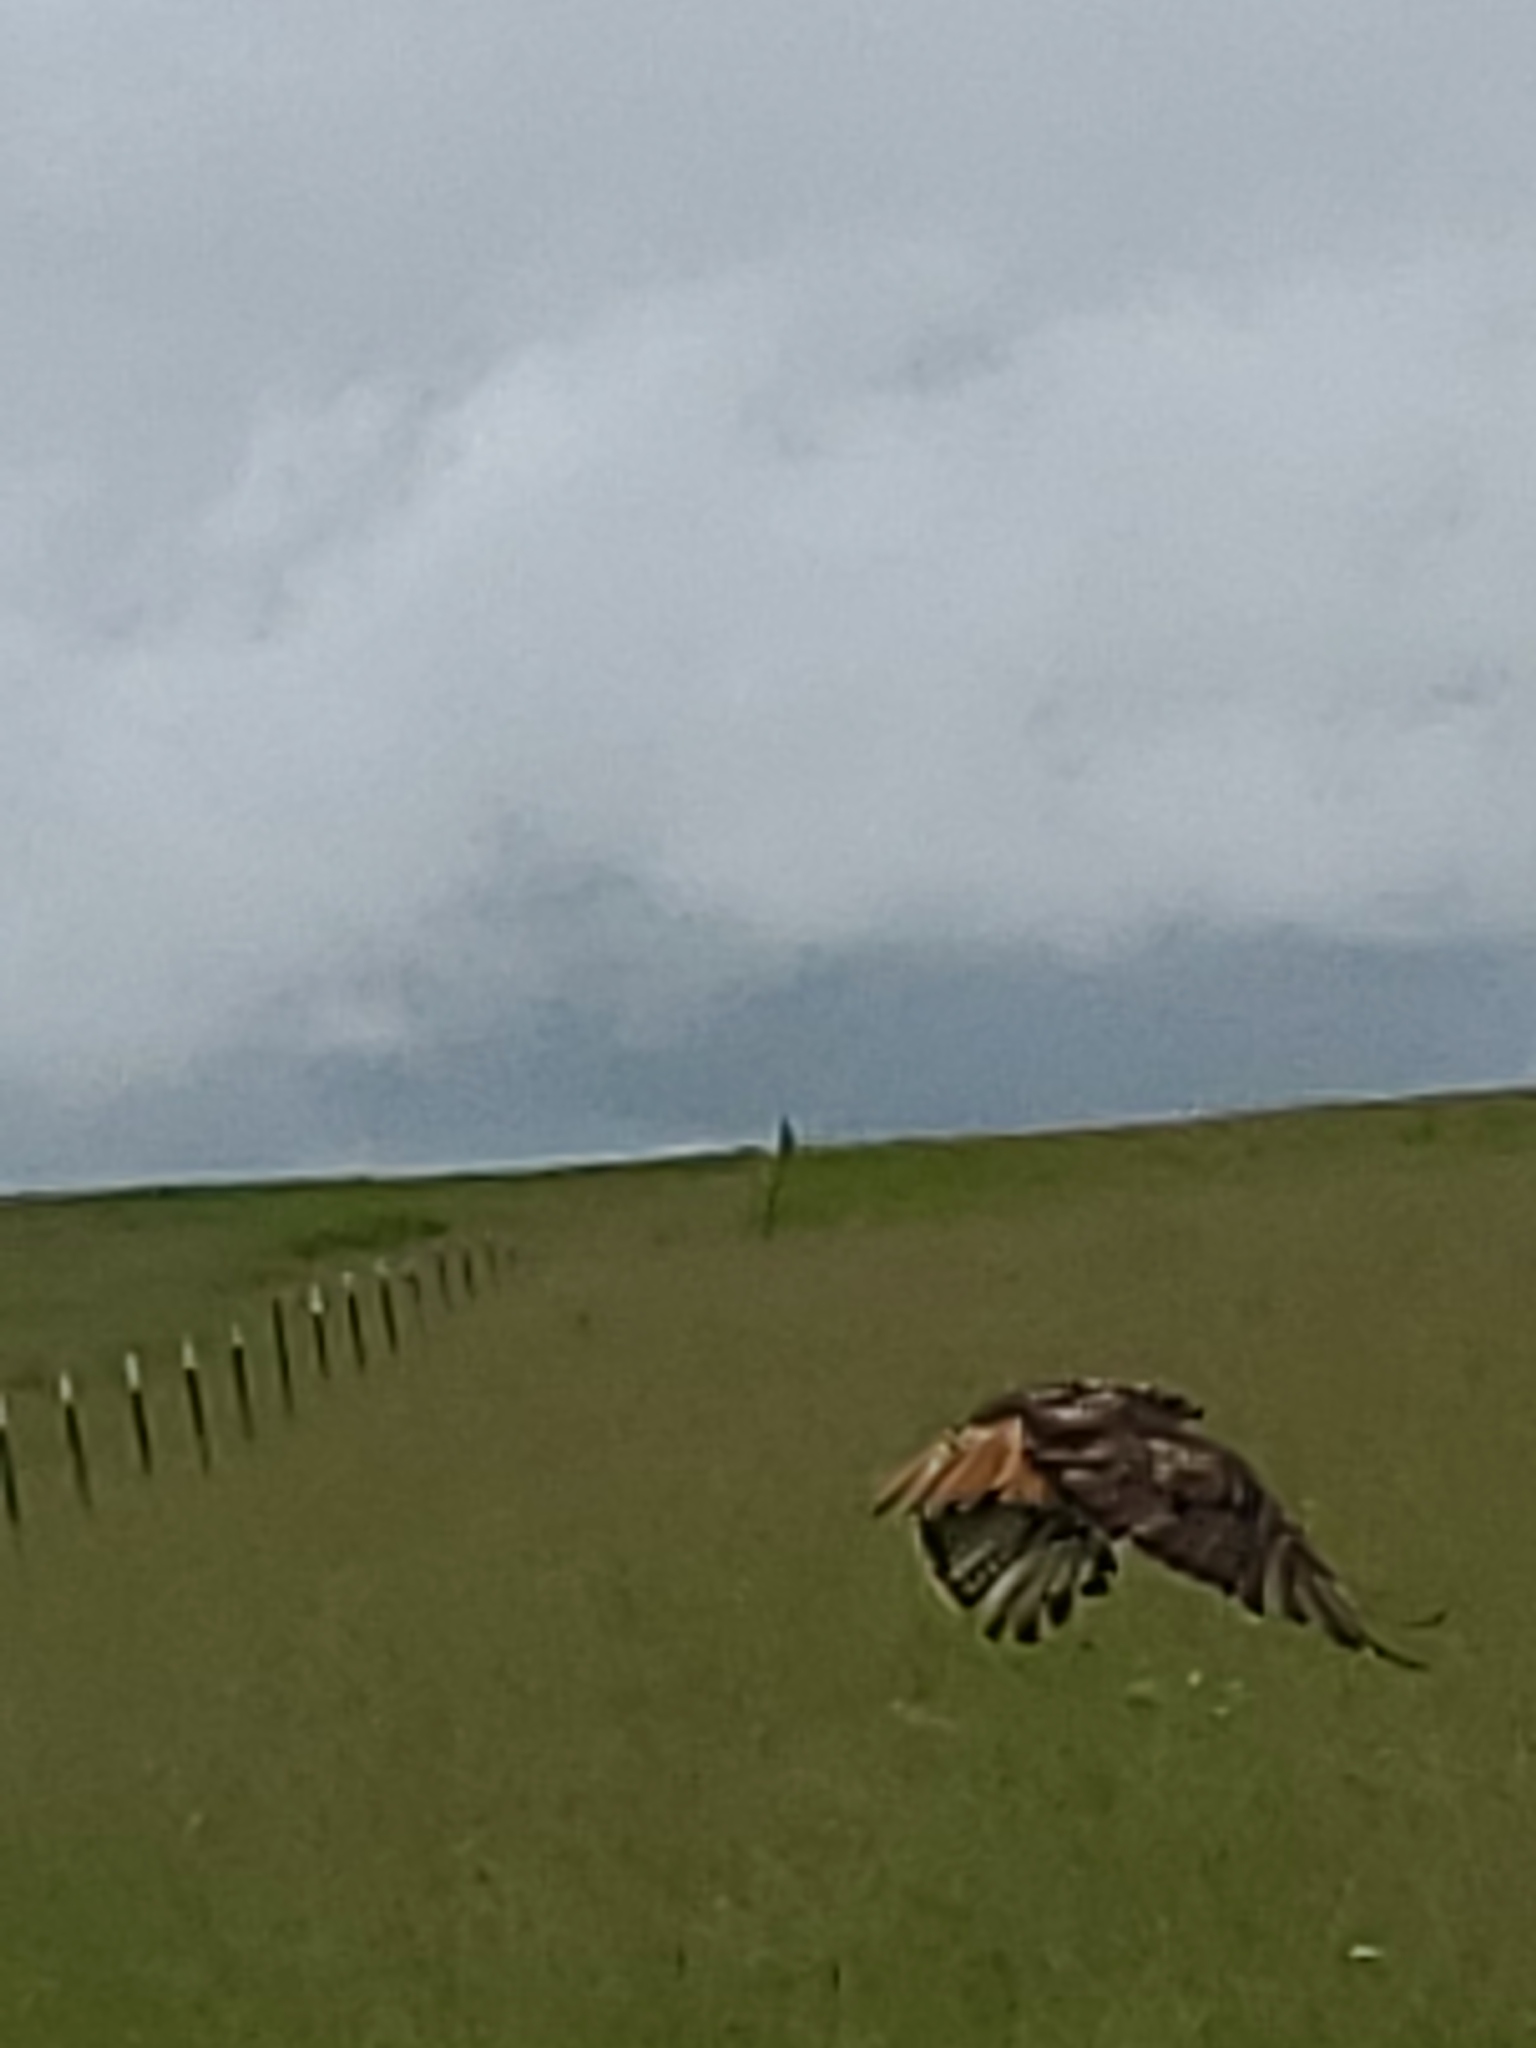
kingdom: Animalia
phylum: Chordata
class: Aves
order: Accipitriformes
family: Accipitridae
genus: Buteo
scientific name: Buteo jamaicensis
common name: Red-tailed hawk
